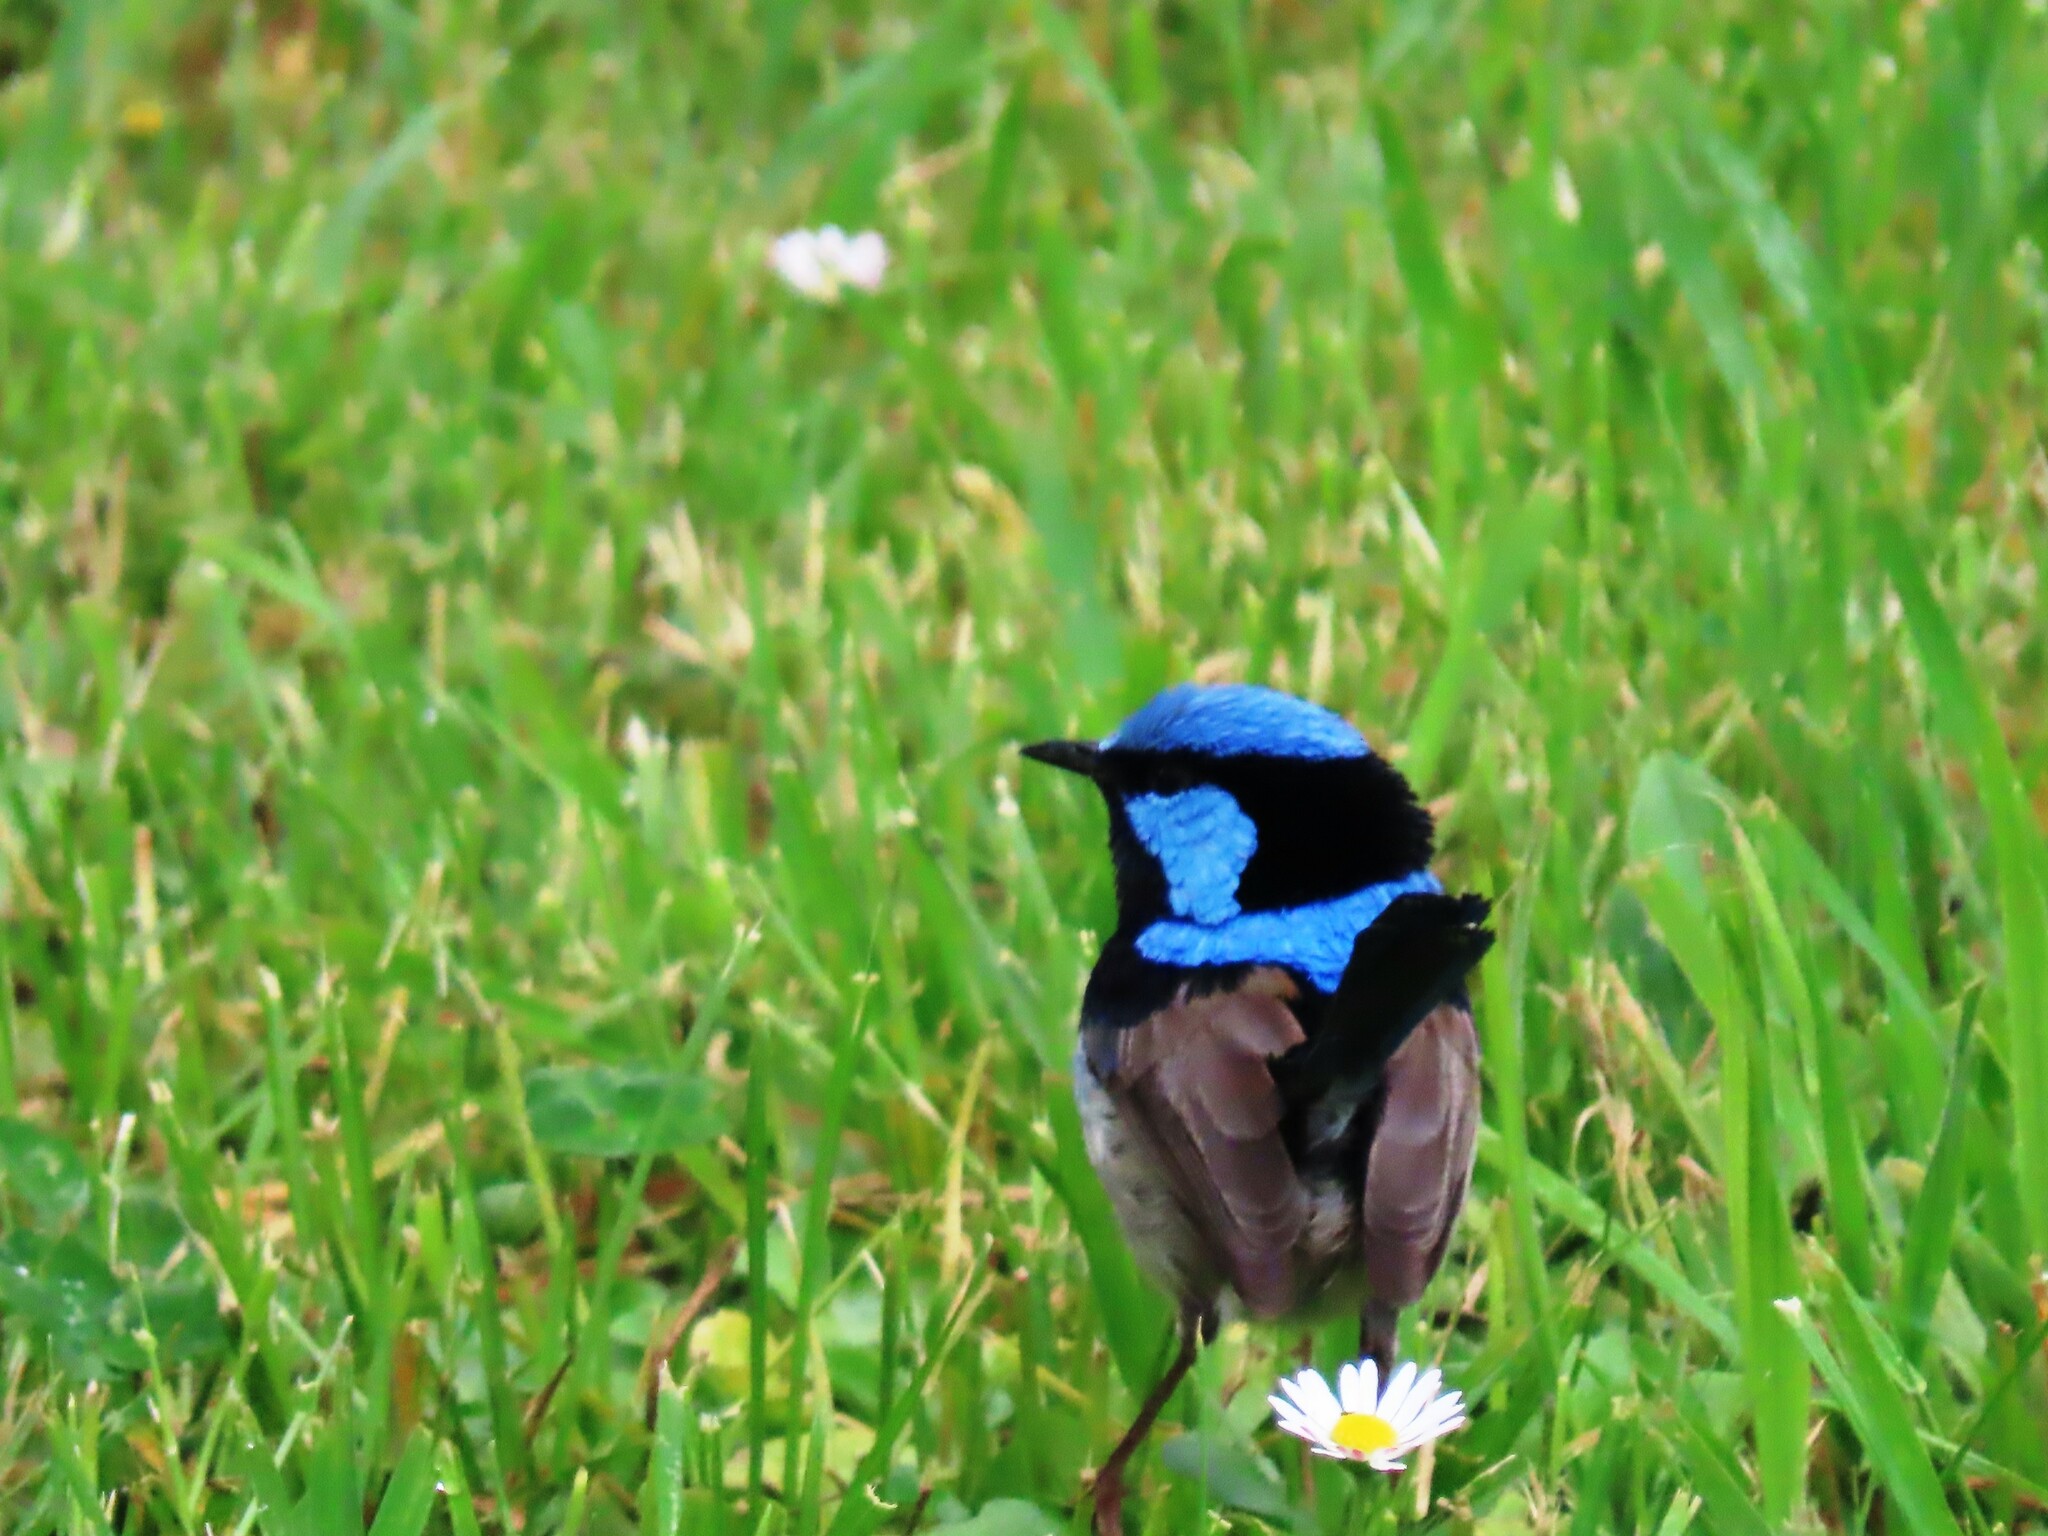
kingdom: Animalia
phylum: Chordata
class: Aves
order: Passeriformes
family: Maluridae
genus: Malurus
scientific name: Malurus cyaneus
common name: Superb fairywren
